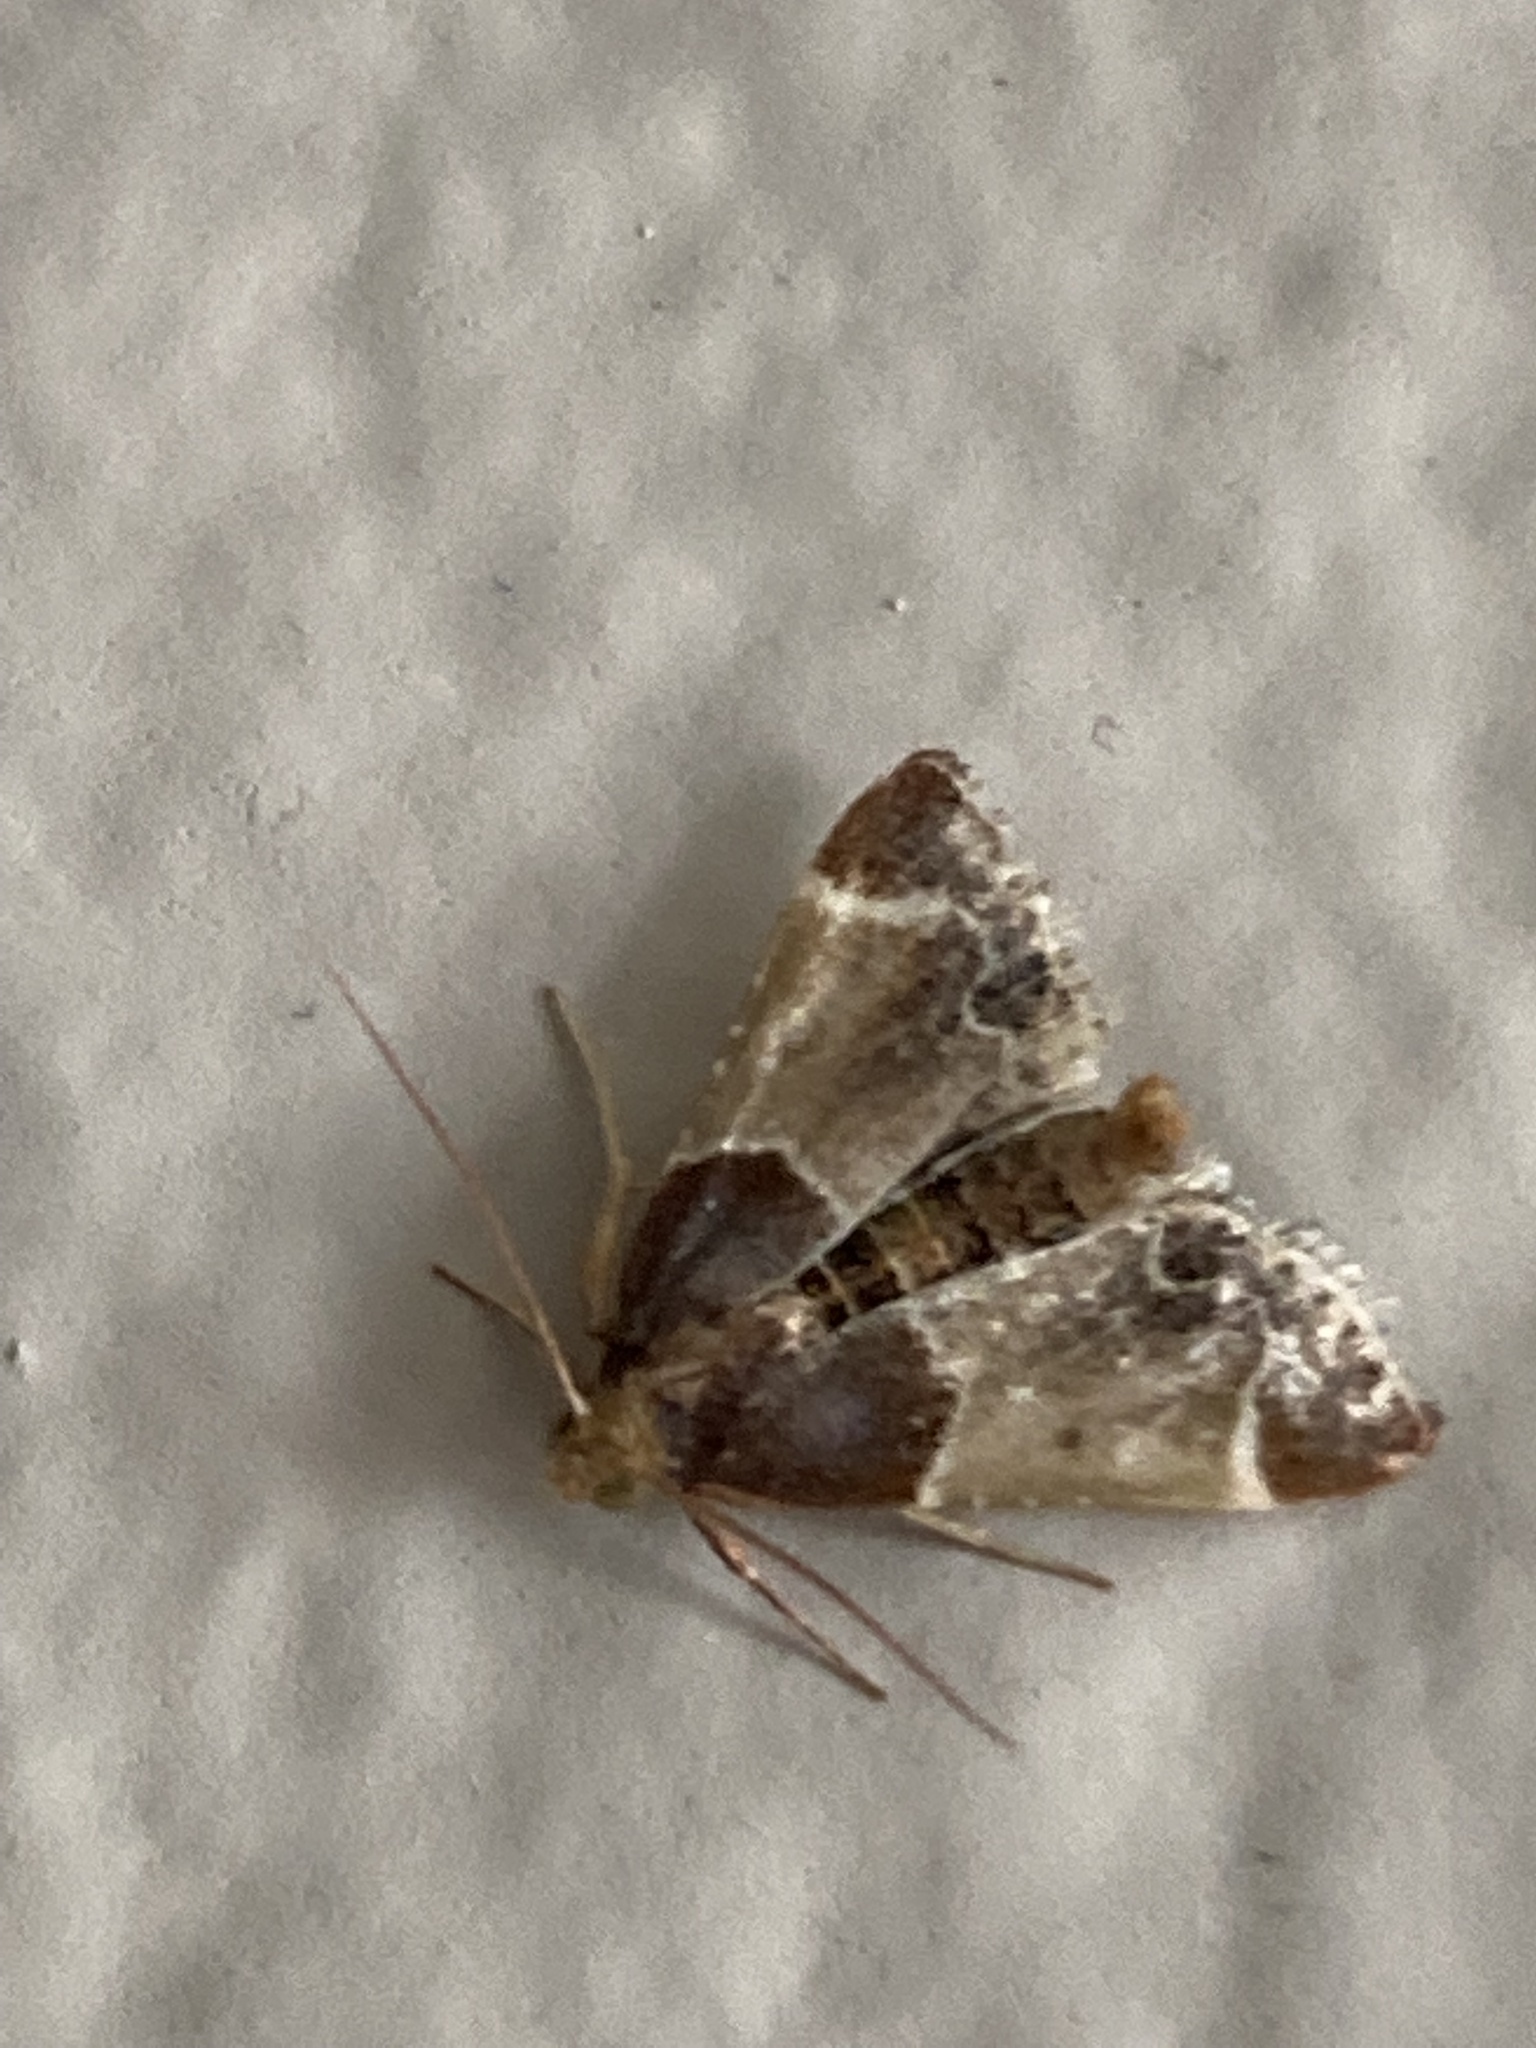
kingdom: Animalia
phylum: Arthropoda
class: Insecta
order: Lepidoptera
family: Pyralidae
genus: Pyralis
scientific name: Pyralis farinalis
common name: Meal moth
